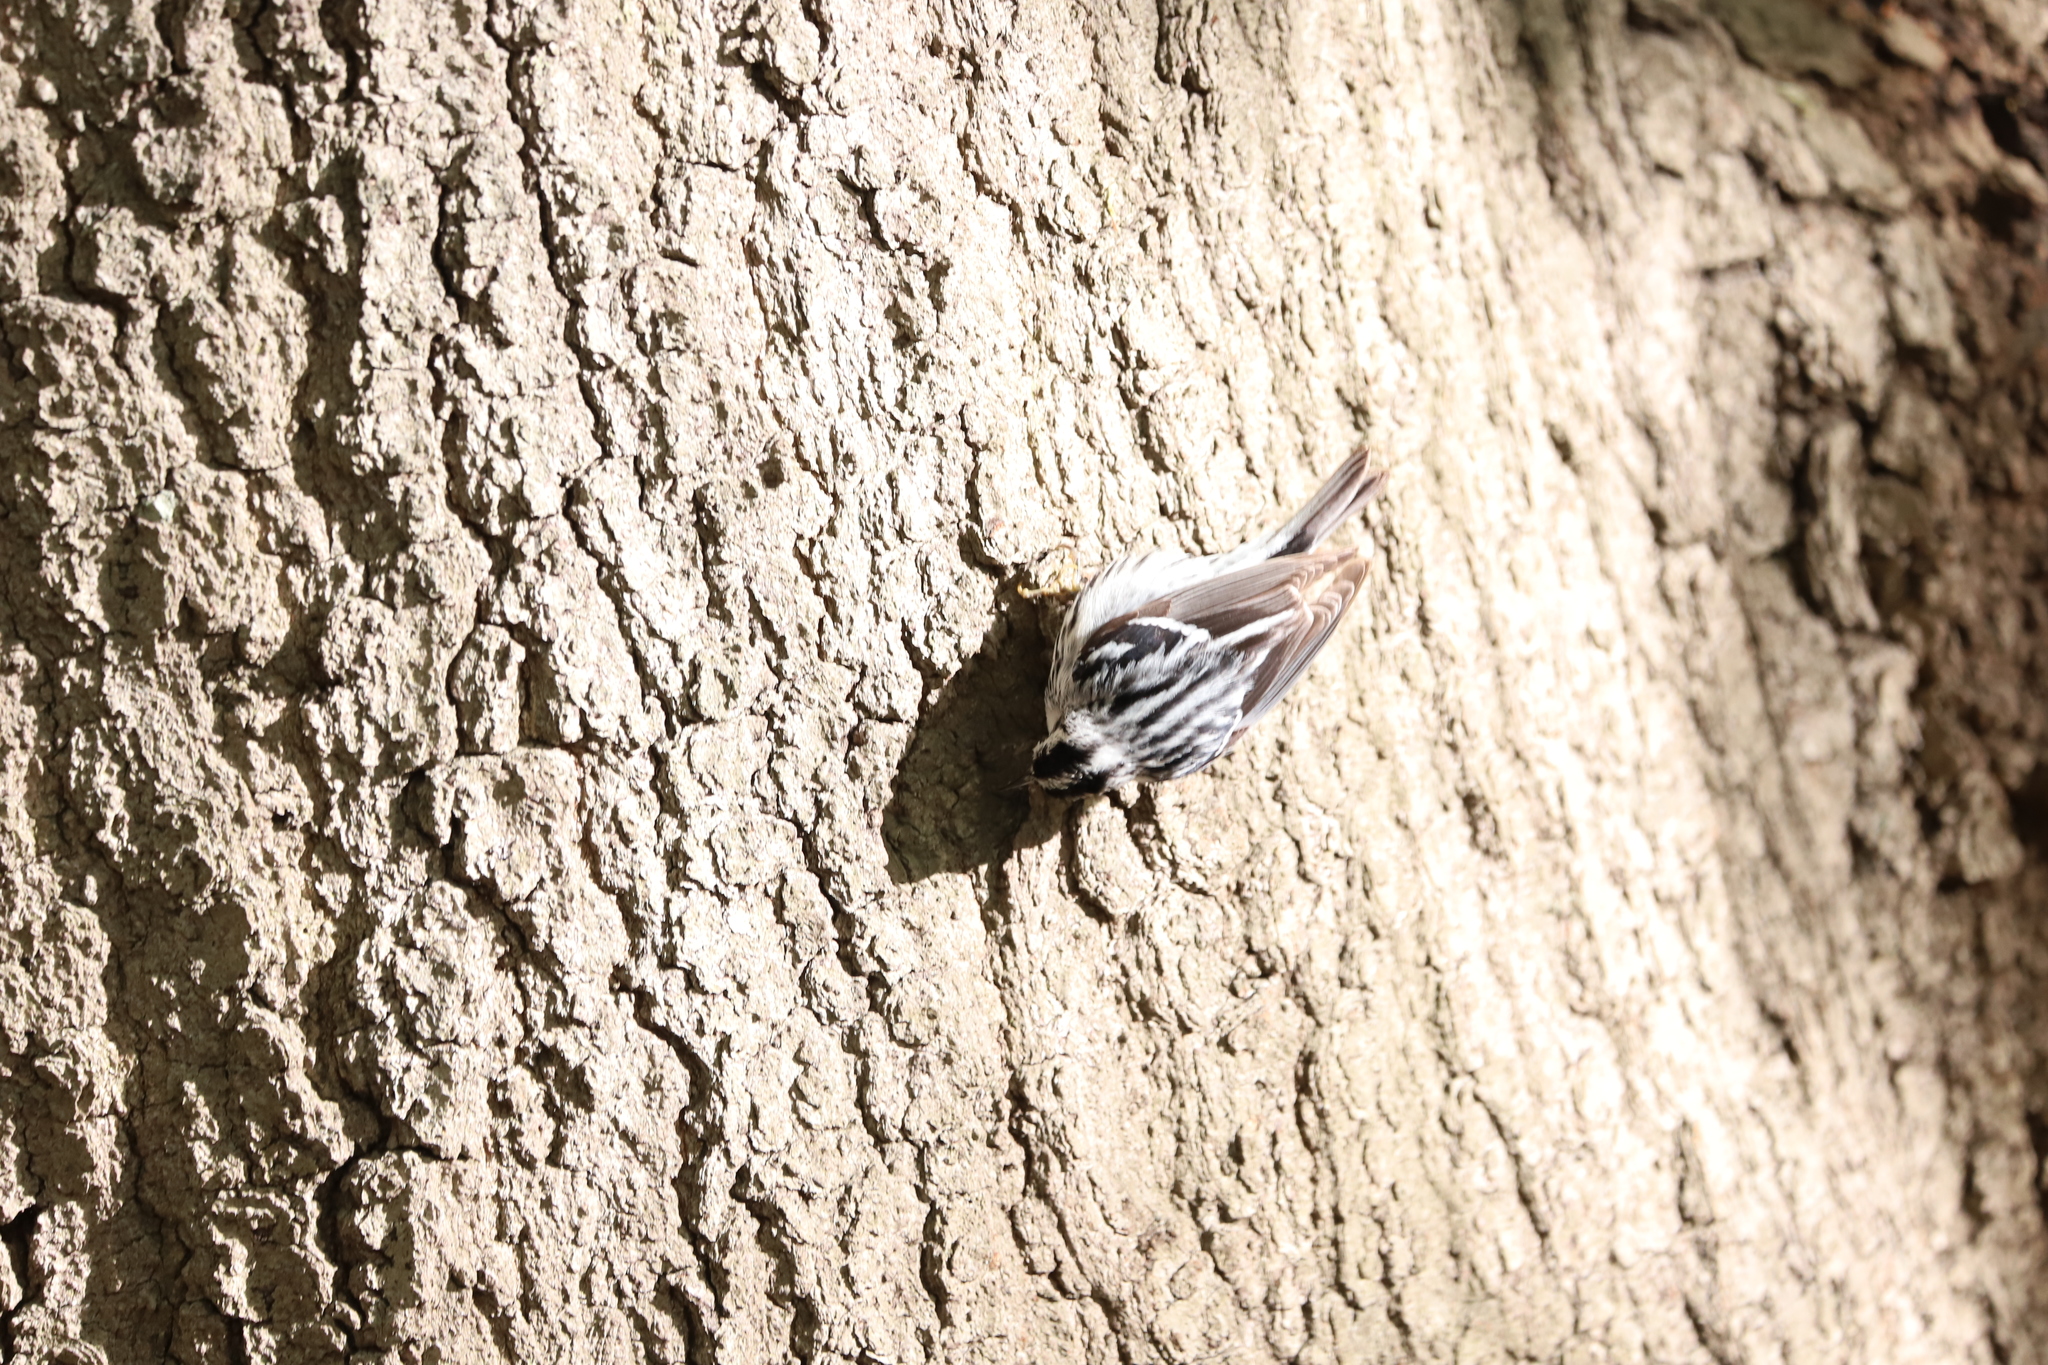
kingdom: Animalia
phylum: Chordata
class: Aves
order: Passeriformes
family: Parulidae
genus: Mniotilta
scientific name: Mniotilta varia
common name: Black-and-white warbler
